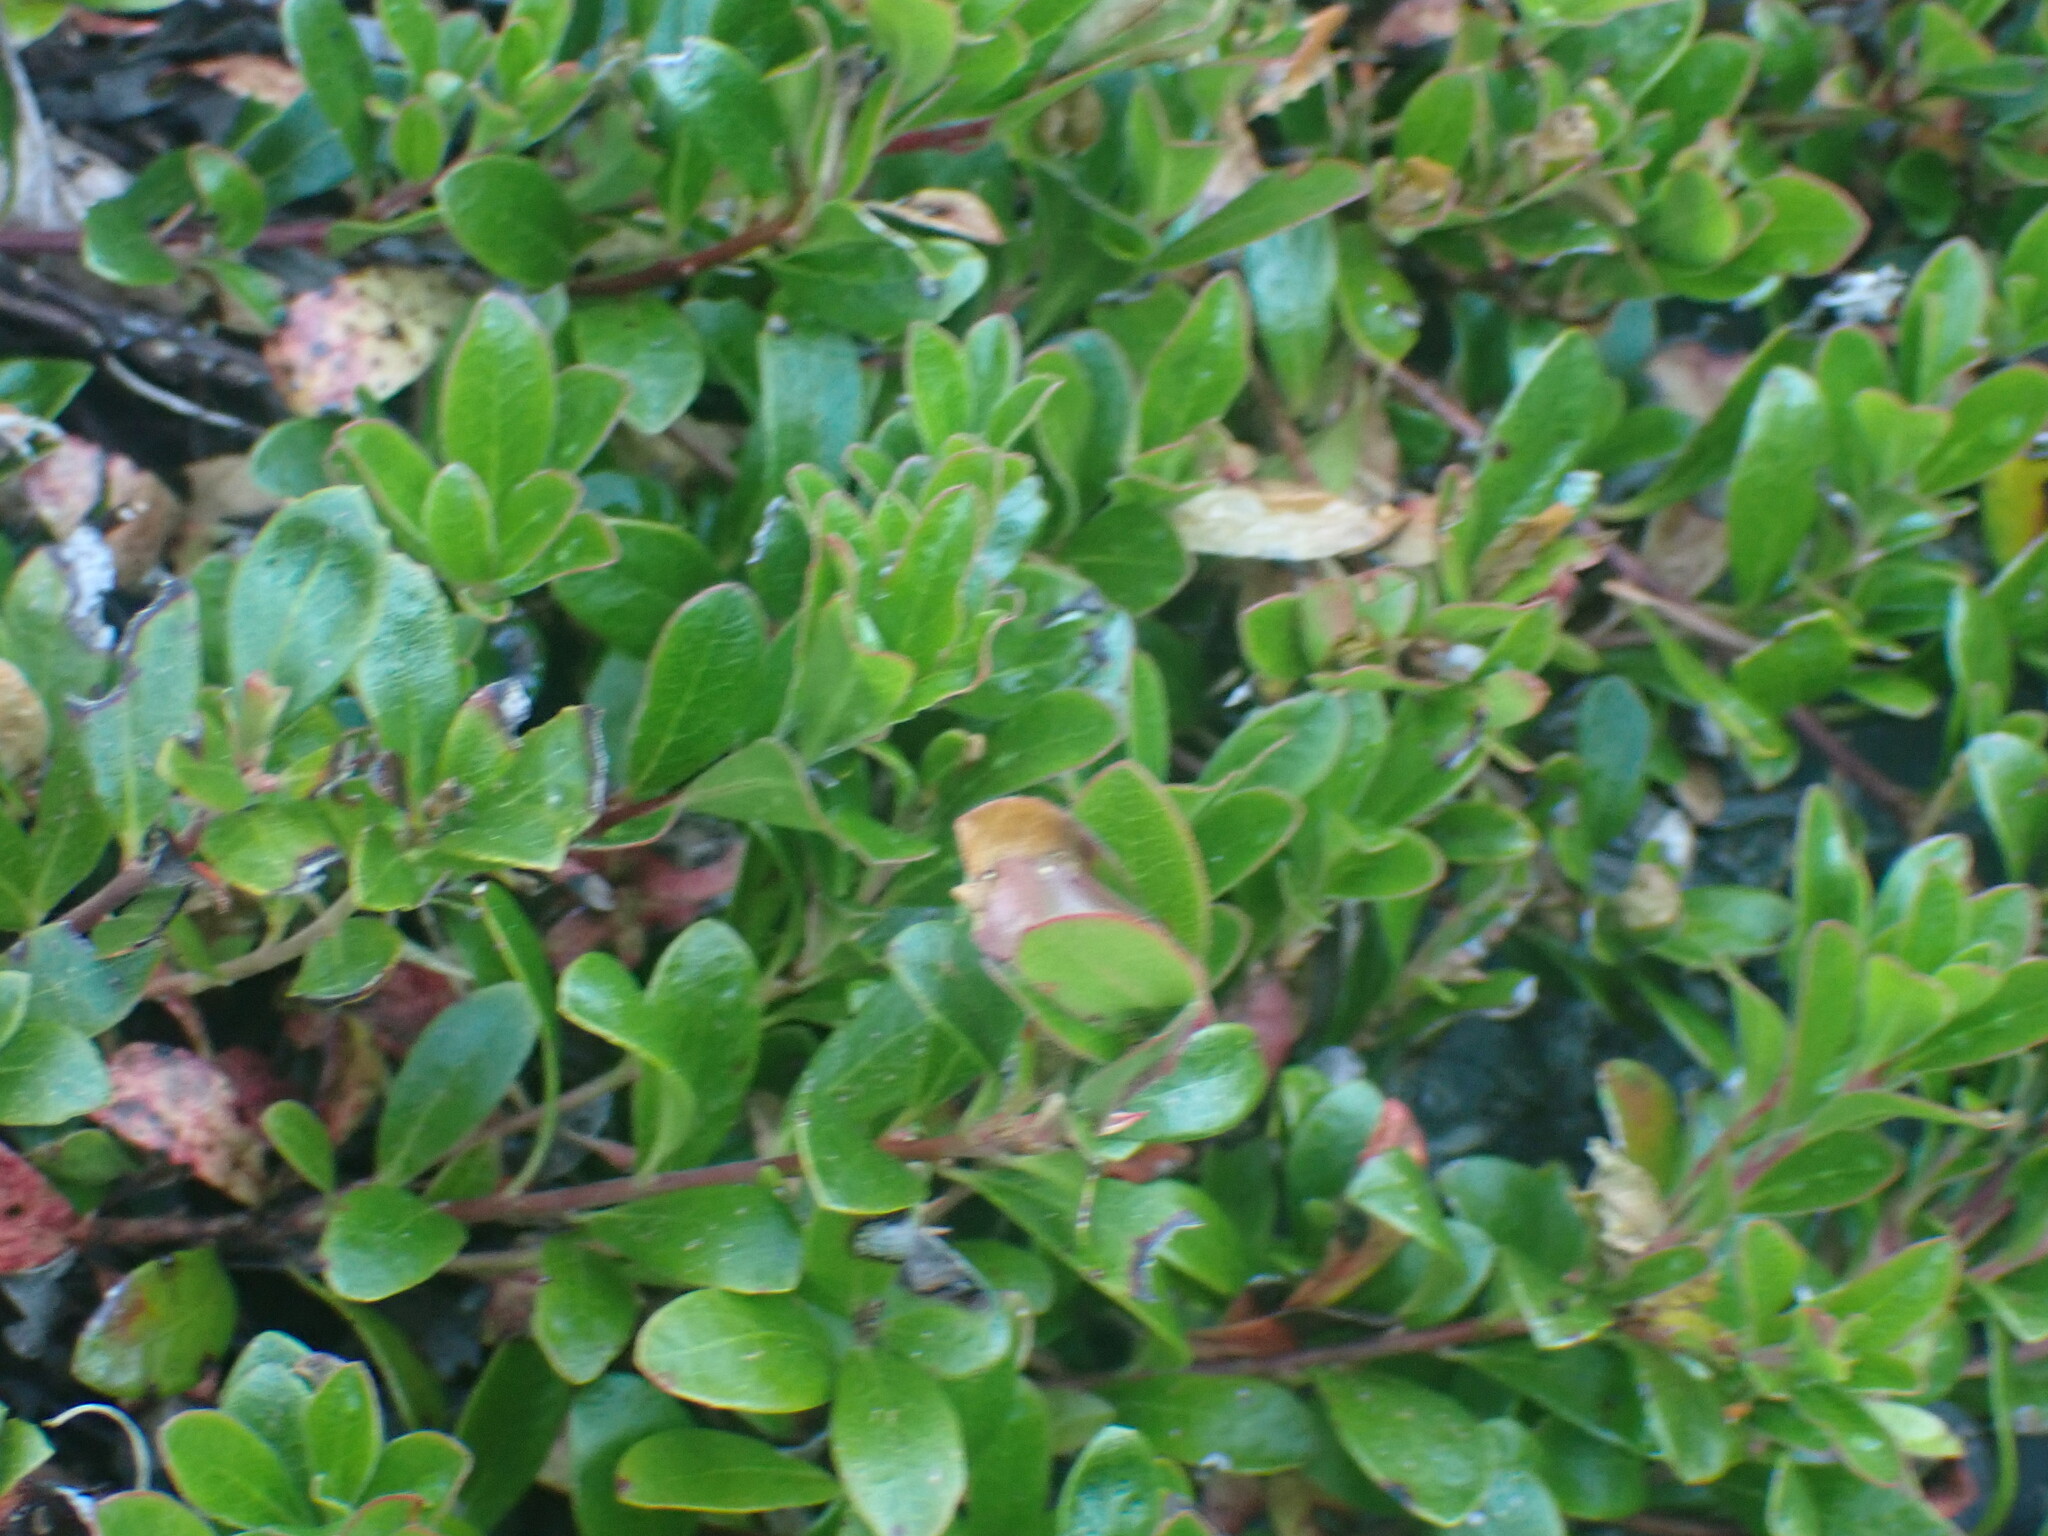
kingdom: Plantae
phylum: Tracheophyta
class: Magnoliopsida
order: Ericales
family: Ericaceae
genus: Arctostaphylos
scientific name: Arctostaphylos uva-ursi
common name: Bearberry
